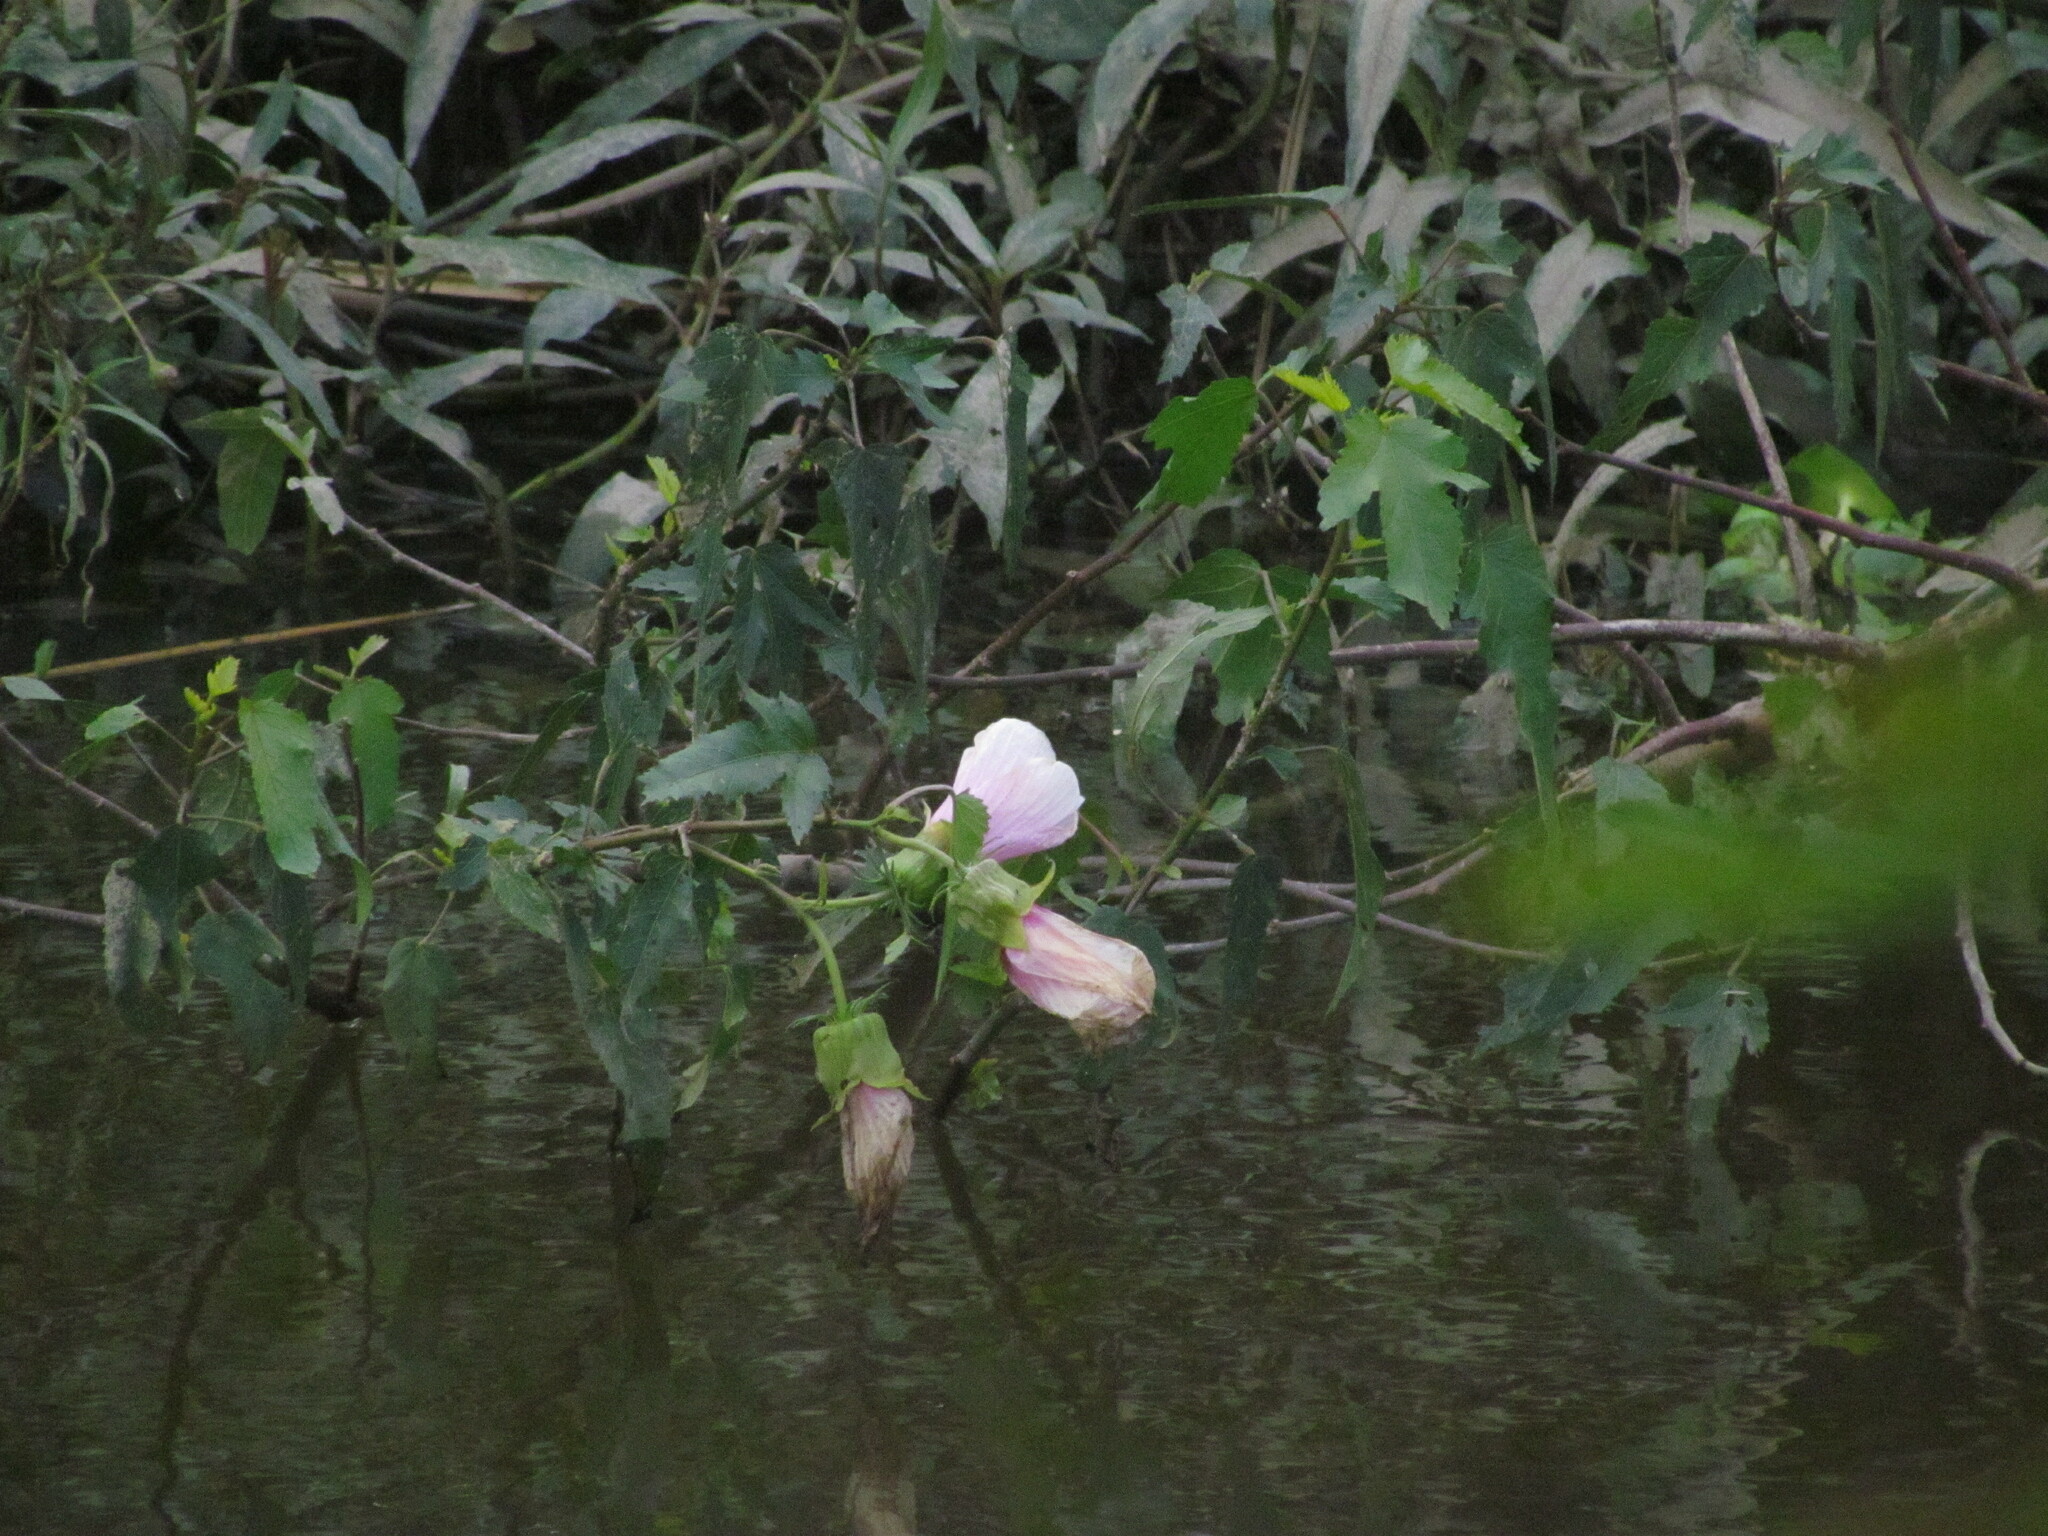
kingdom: Plantae
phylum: Tracheophyta
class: Magnoliopsida
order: Malvales
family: Malvaceae
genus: Hibiscus
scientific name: Hibiscus striatus
